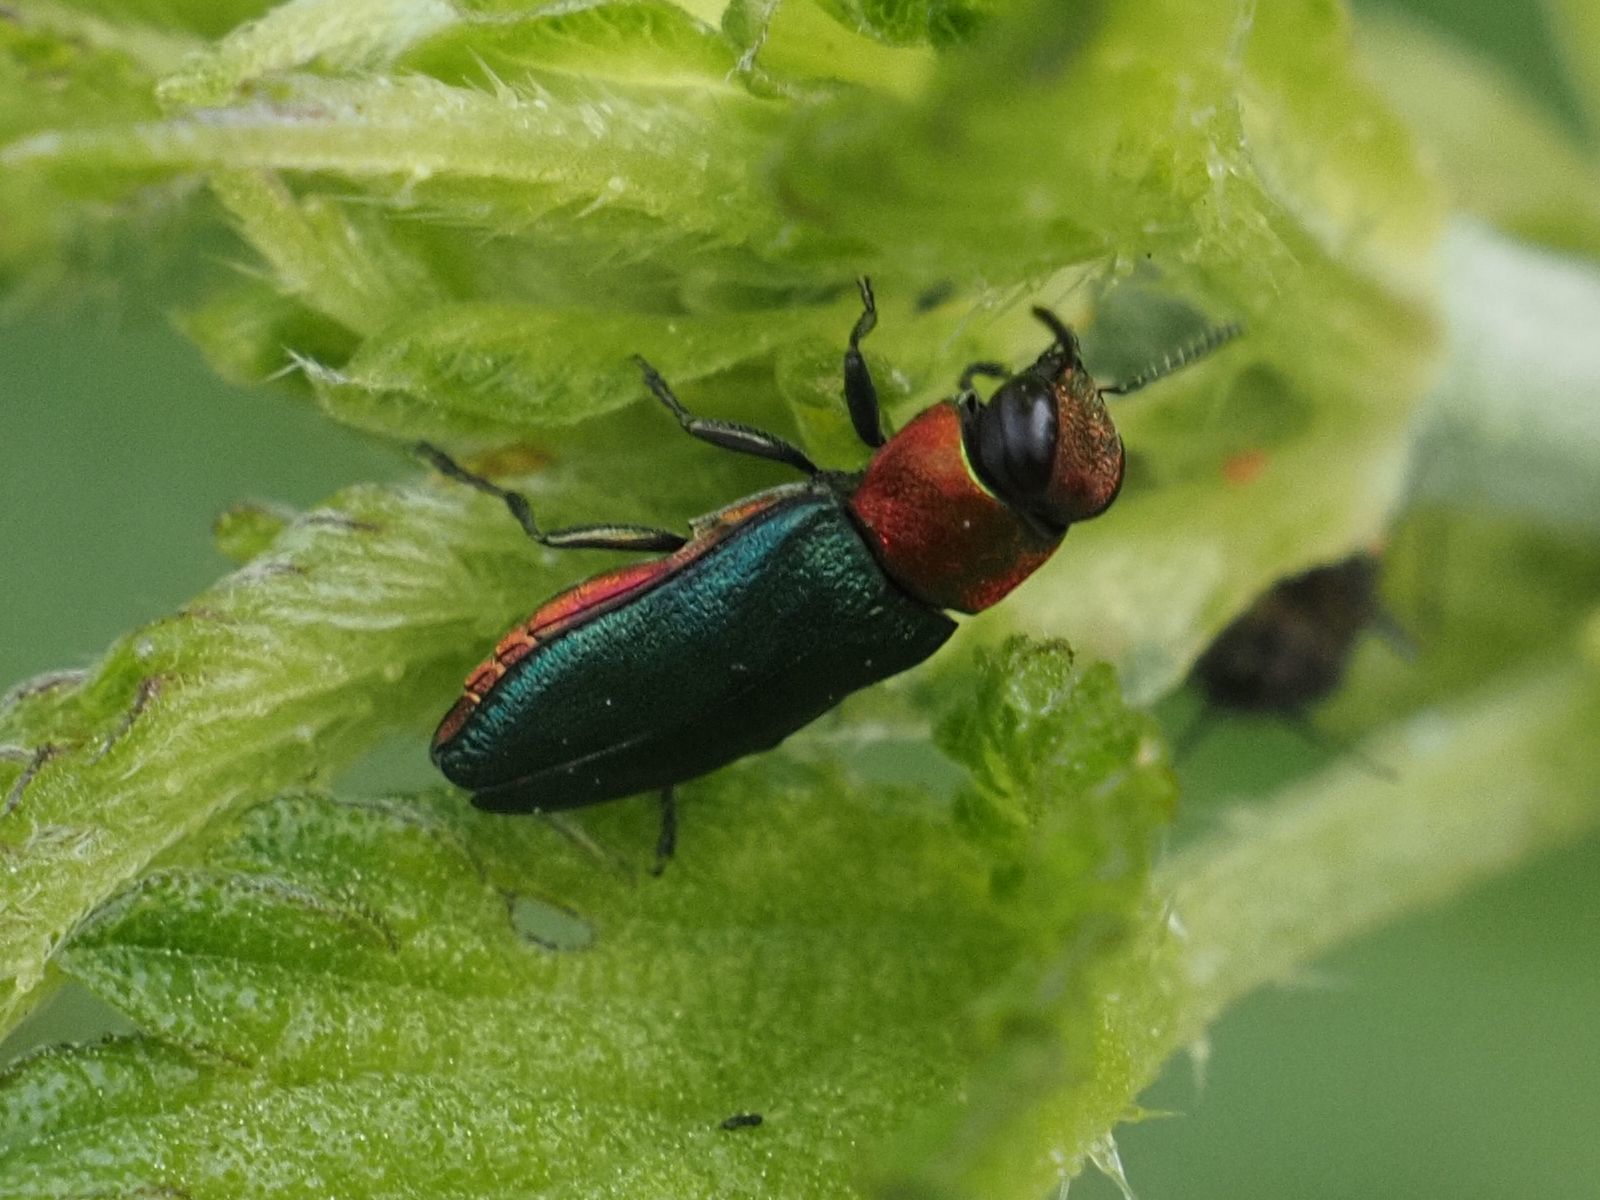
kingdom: Animalia
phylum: Arthropoda
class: Insecta
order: Coleoptera
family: Buprestidae
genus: Anthaxia
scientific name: Anthaxia nitidula
